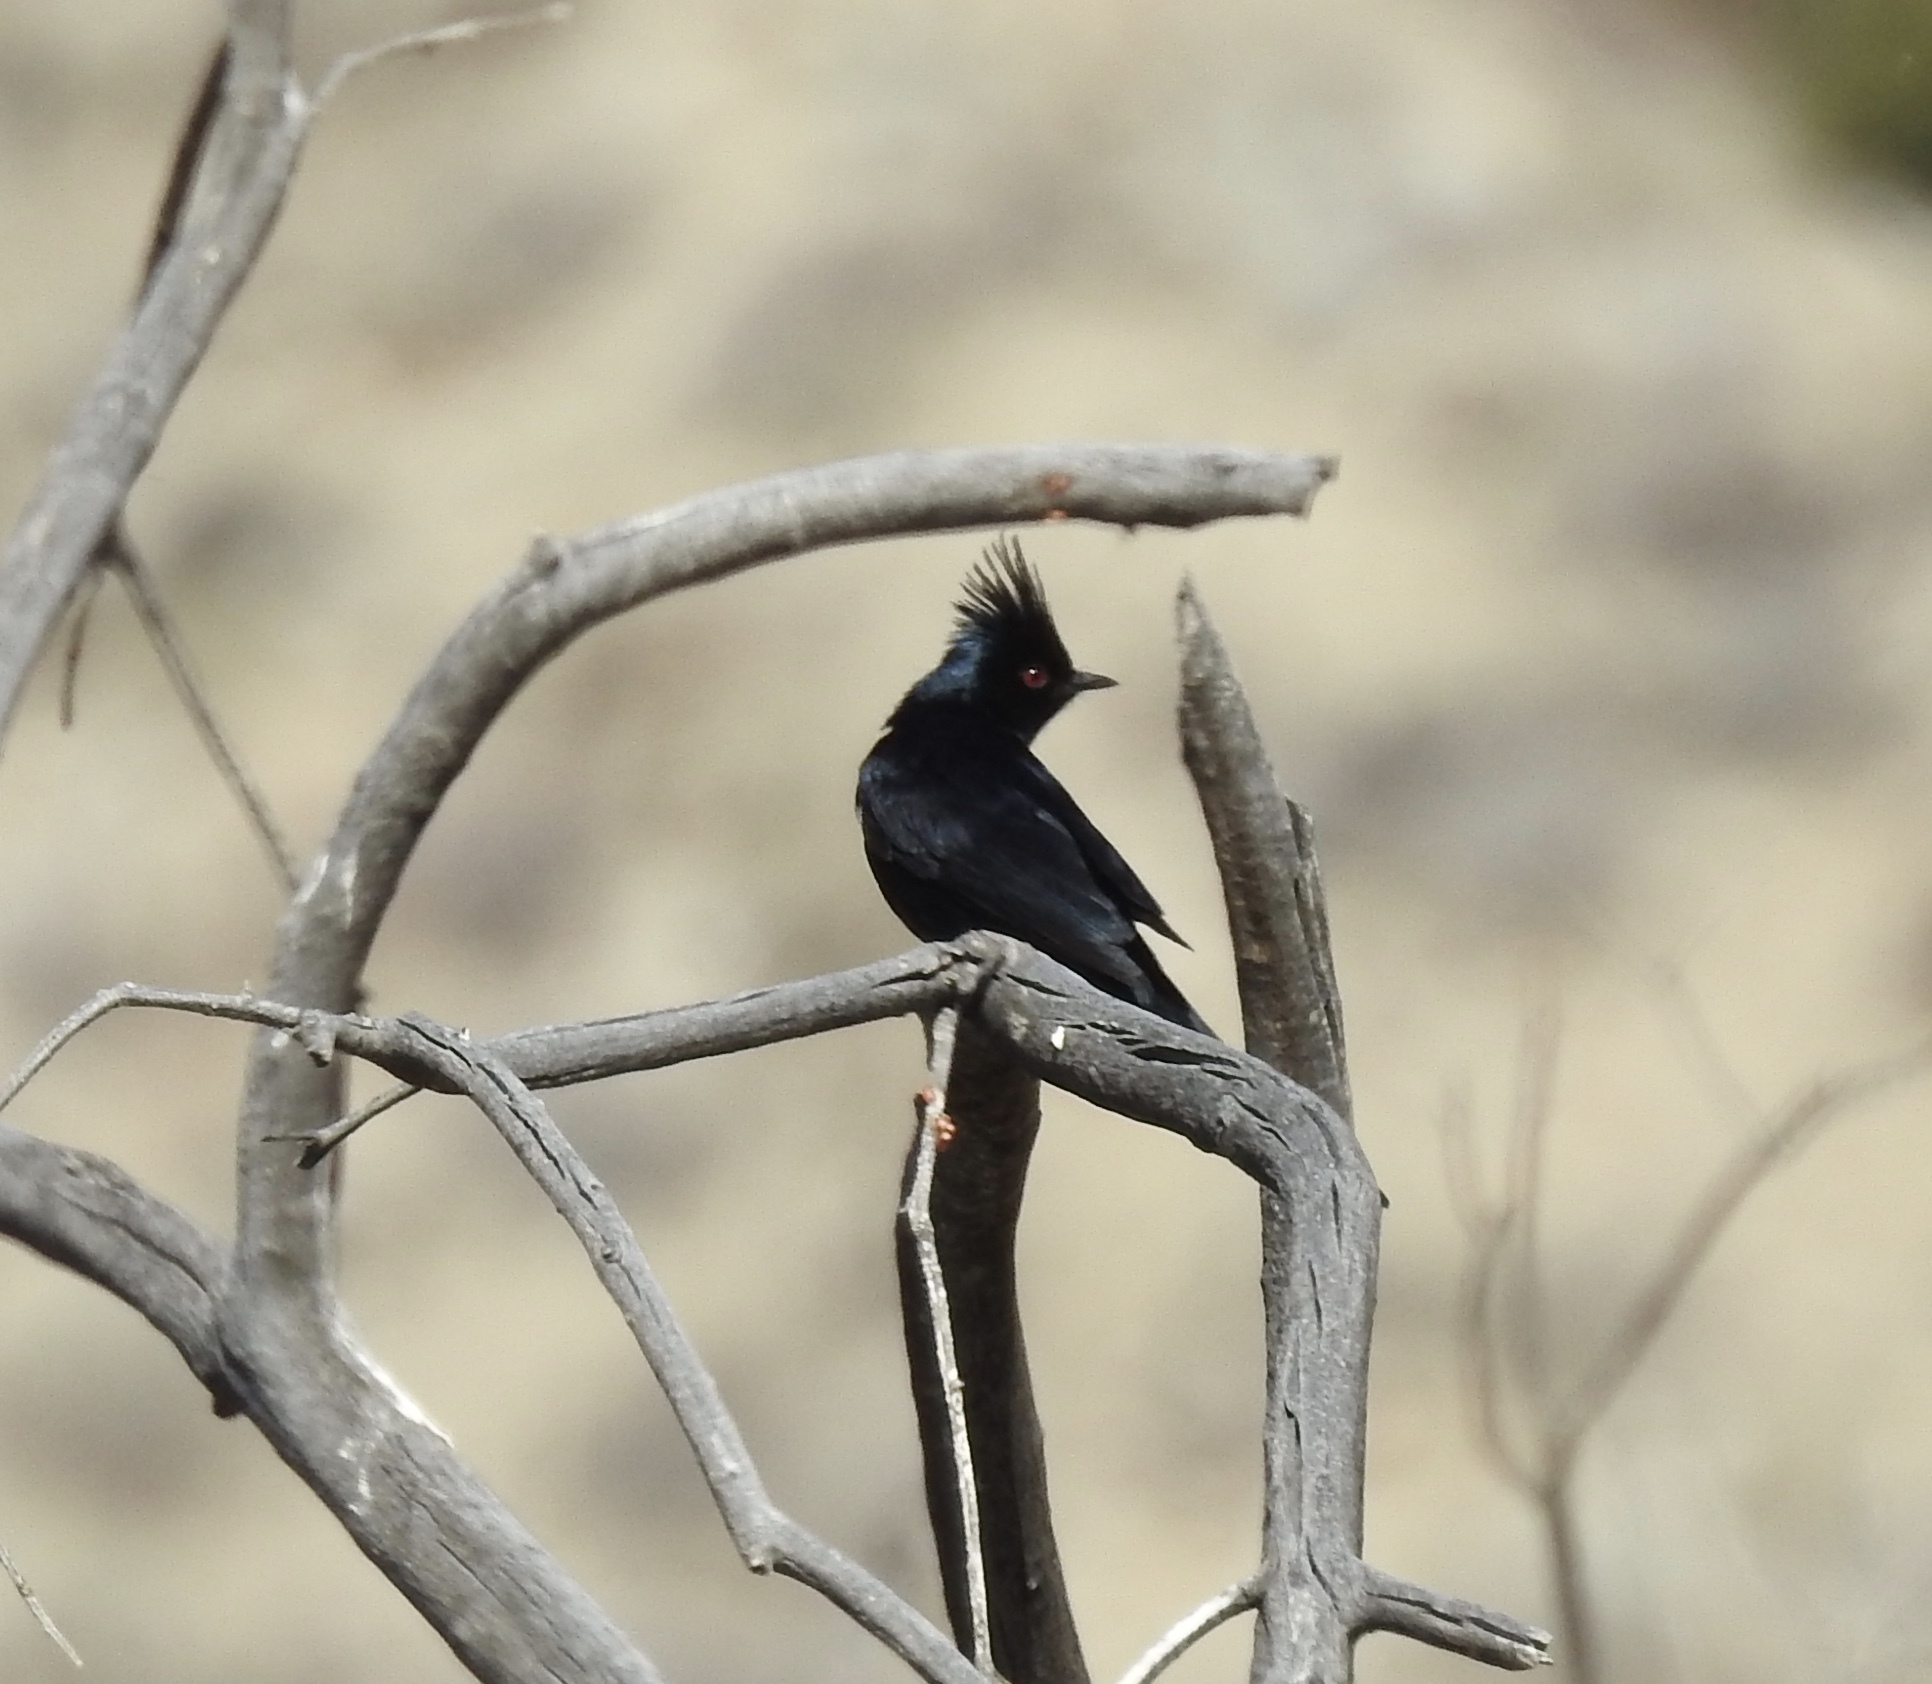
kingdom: Animalia
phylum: Chordata
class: Aves
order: Passeriformes
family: Ptilogonatidae
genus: Phainopepla
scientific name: Phainopepla nitens
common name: Phainopepla
